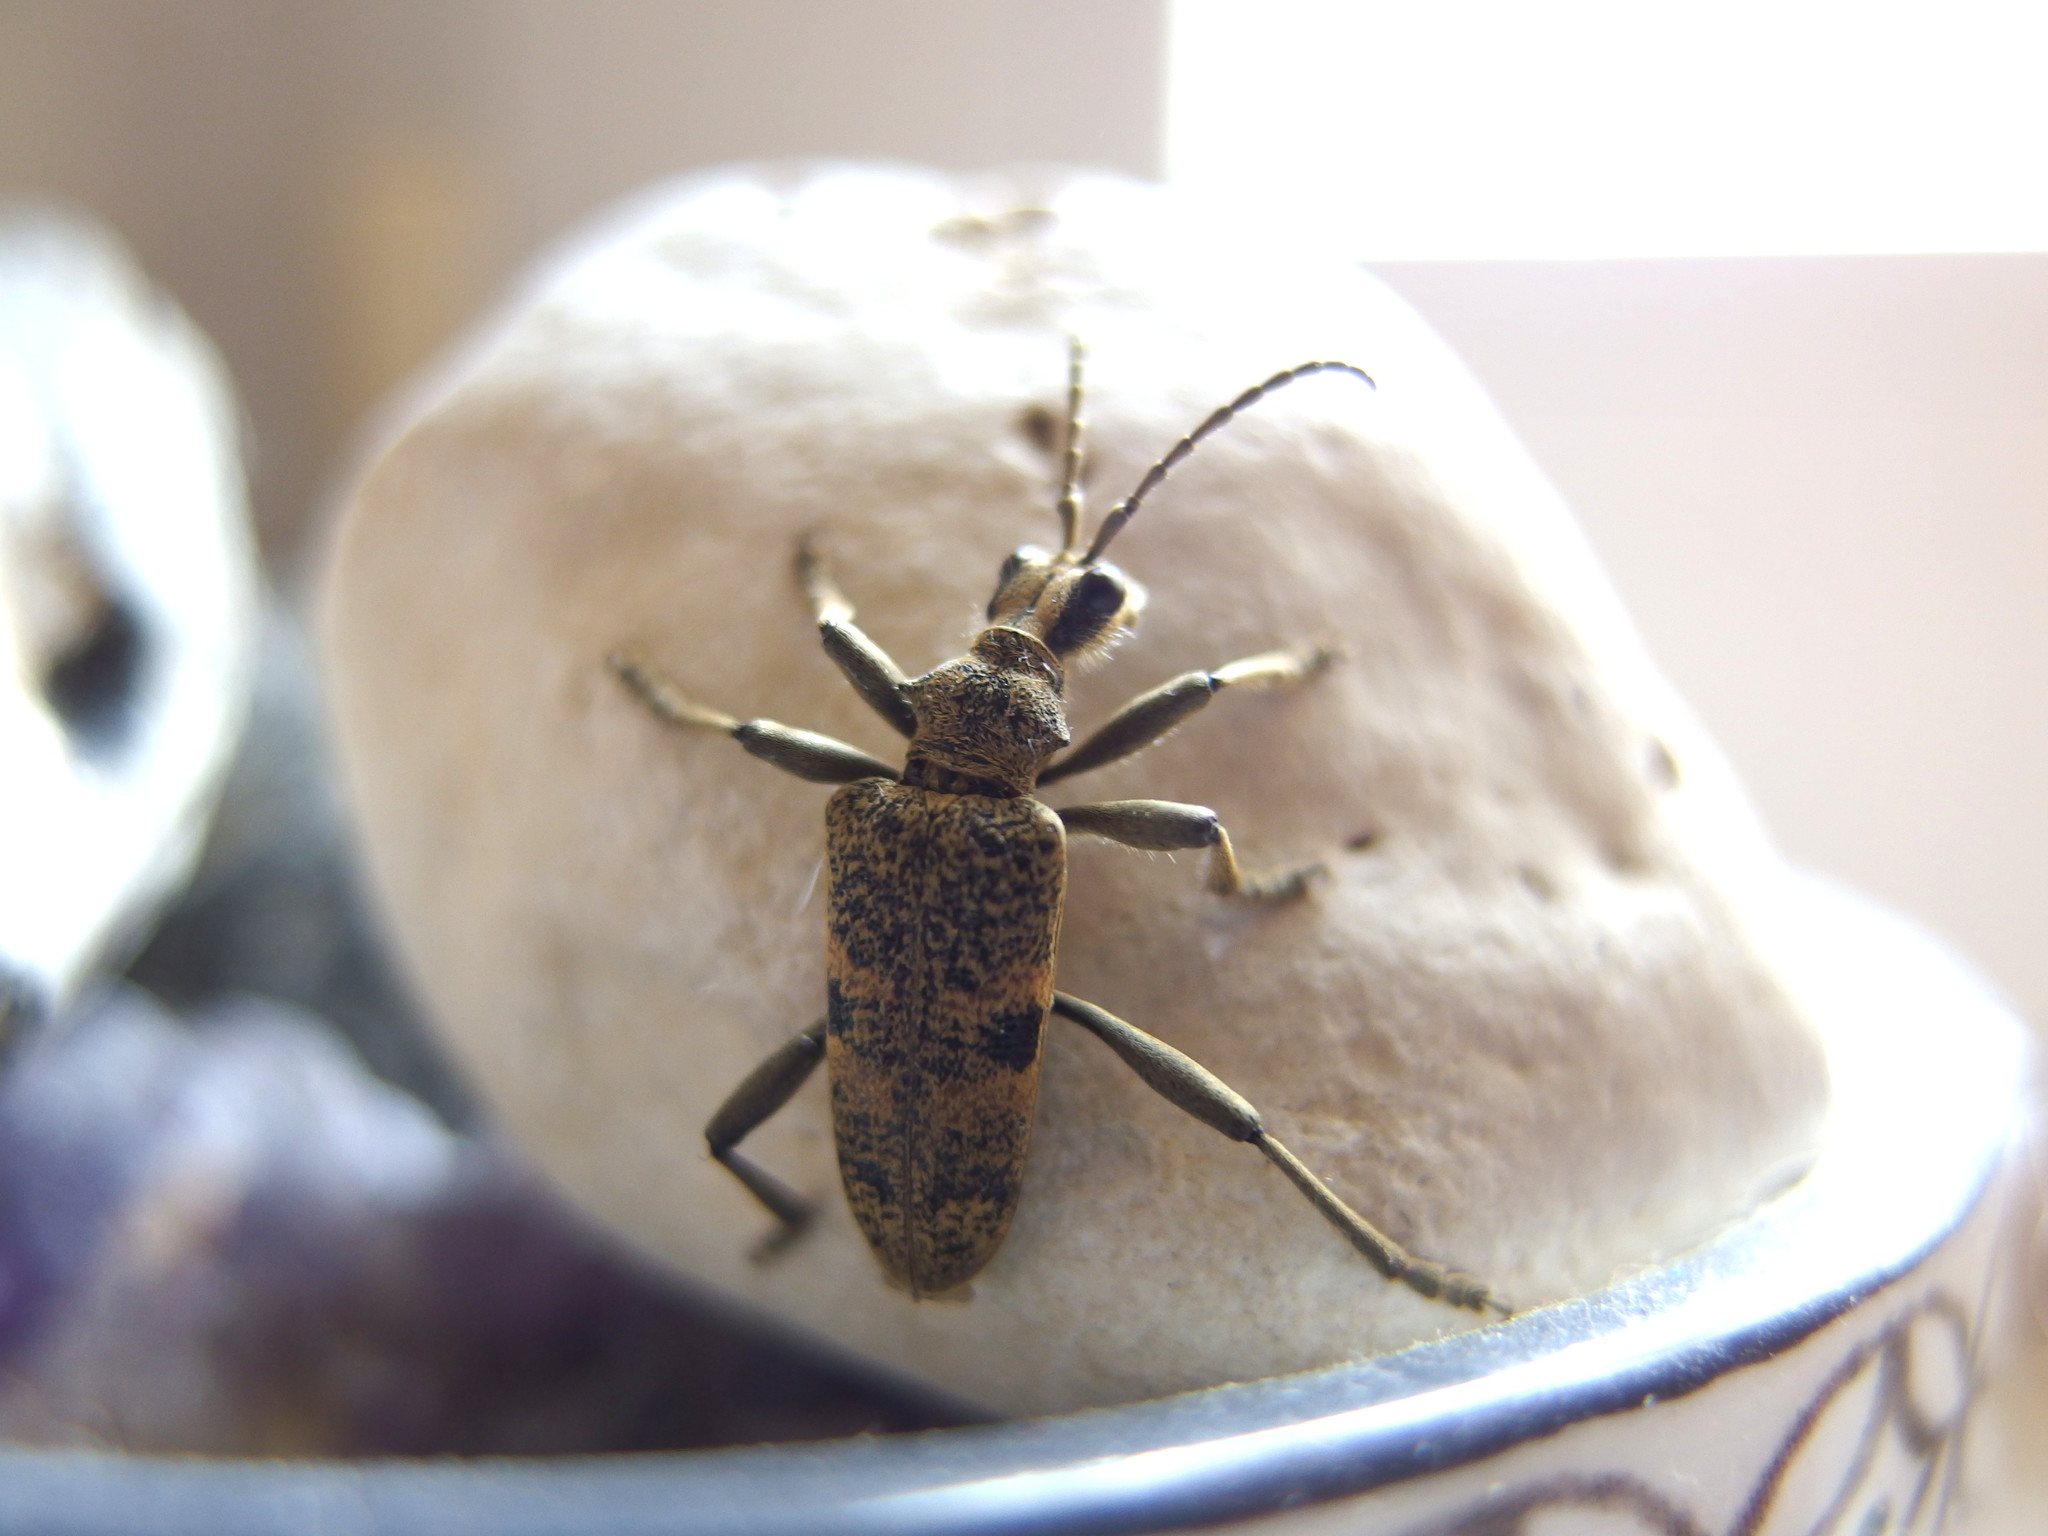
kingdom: Animalia
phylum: Arthropoda
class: Insecta
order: Coleoptera
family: Cerambycidae
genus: Rhagium
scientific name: Rhagium mordax
